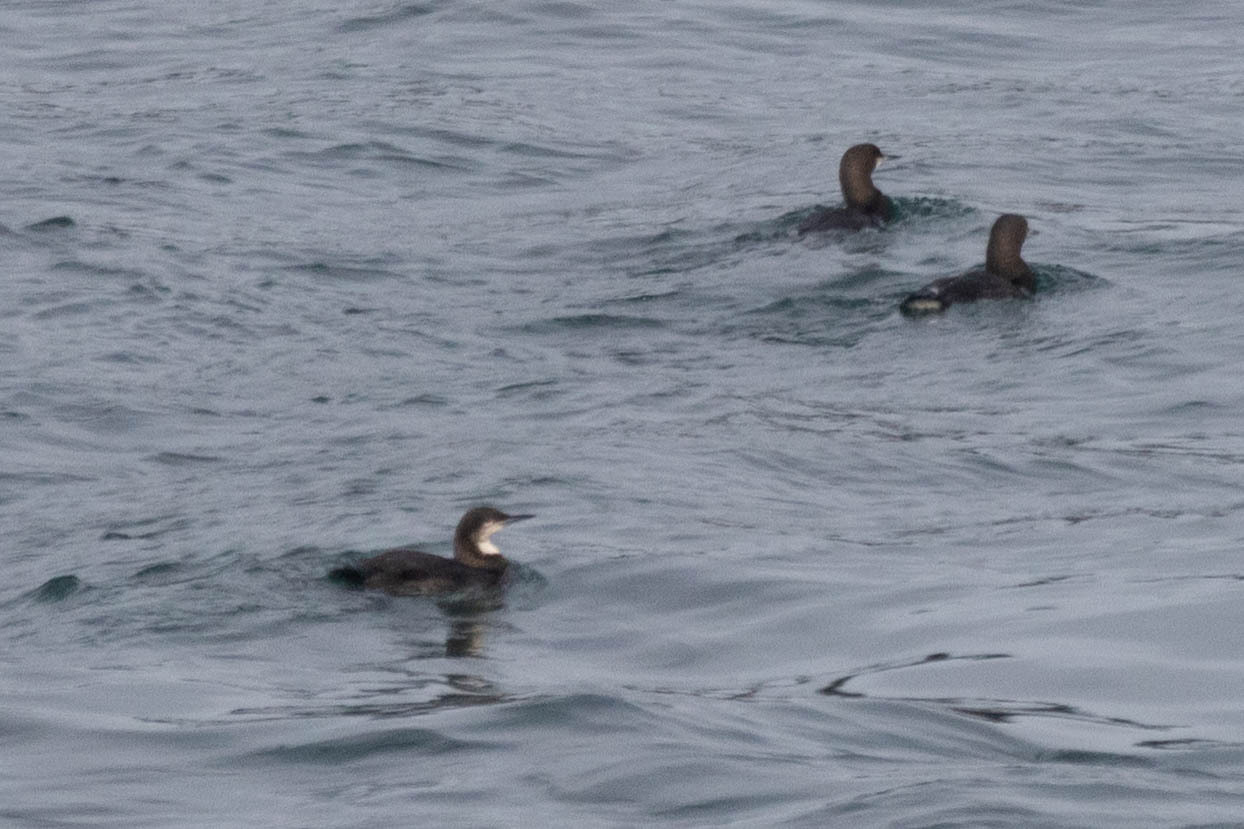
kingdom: Animalia
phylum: Chordata
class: Aves
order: Gaviiformes
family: Gaviidae
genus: Gavia
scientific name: Gavia pacifica
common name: Pacific loon
